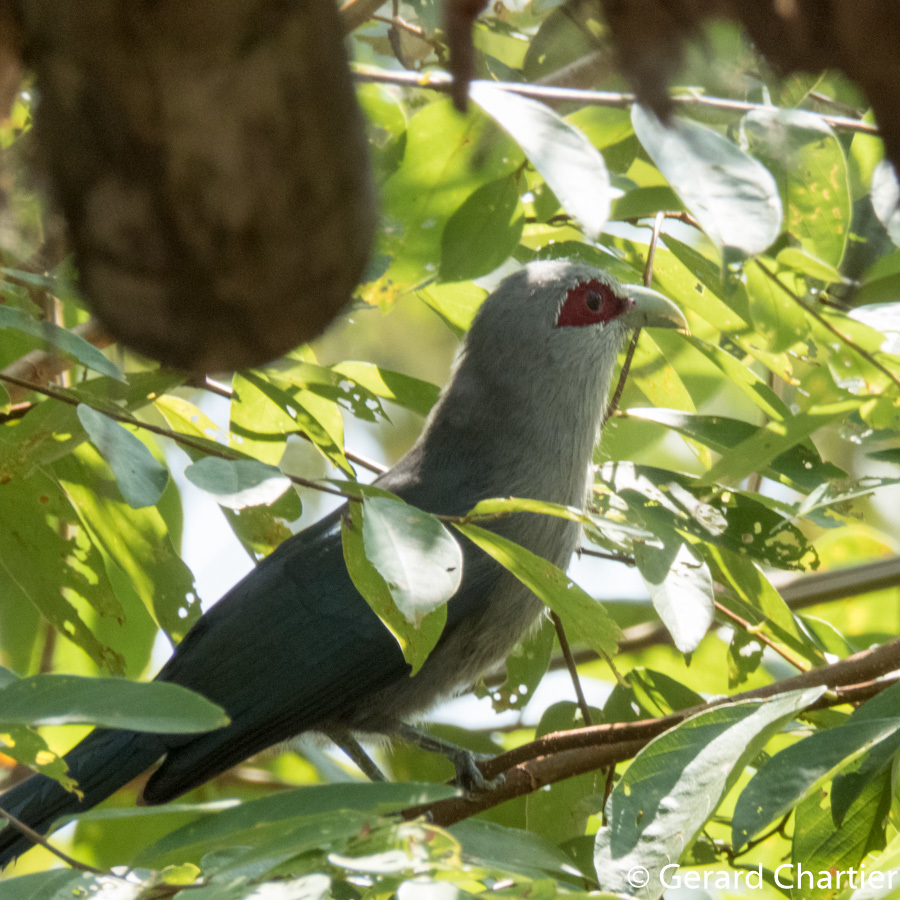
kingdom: Animalia
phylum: Chordata
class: Aves
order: Cuculiformes
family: Cuculidae
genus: Rhopodytes
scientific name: Rhopodytes tristis
